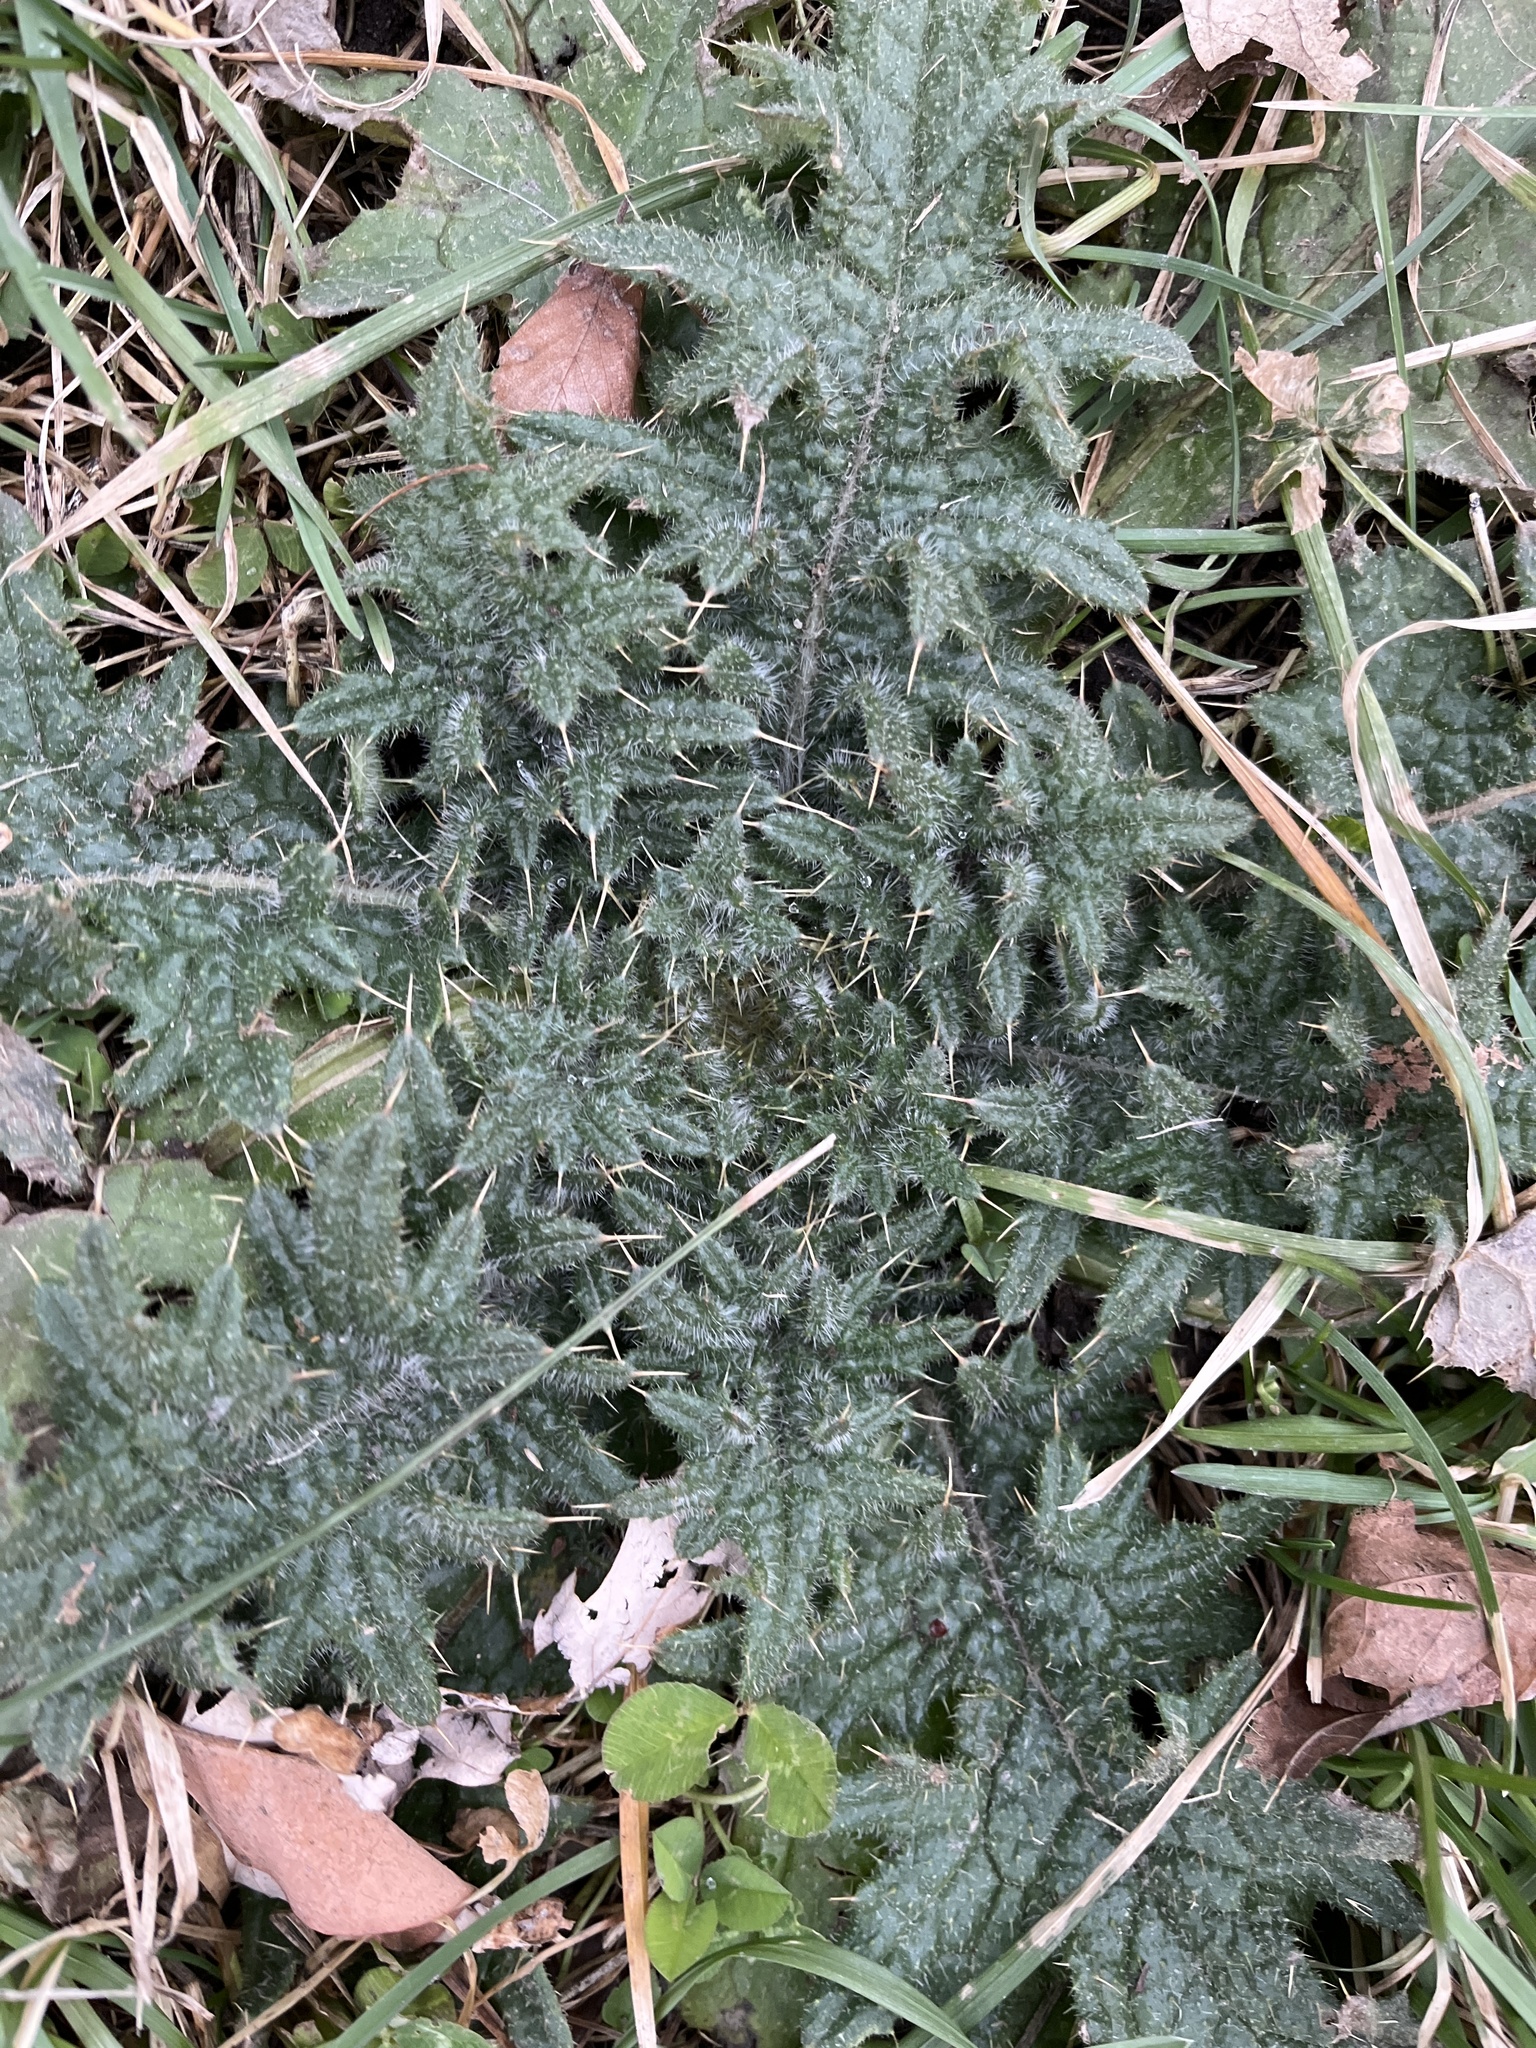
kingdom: Plantae
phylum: Tracheophyta
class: Magnoliopsida
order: Asterales
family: Asteraceae
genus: Cirsium
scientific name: Cirsium vulgare
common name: Bull thistle
